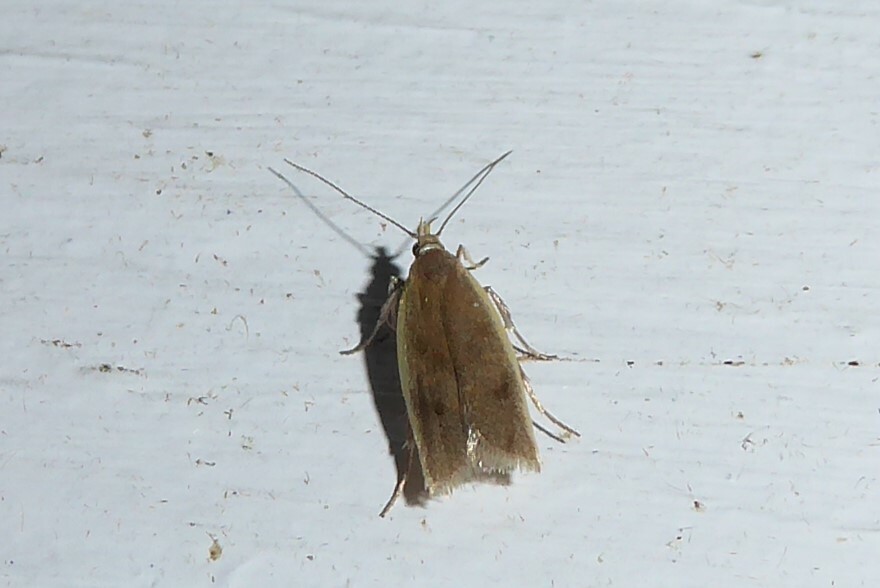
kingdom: Animalia
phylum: Arthropoda
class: Insecta
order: Lepidoptera
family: Oecophoridae
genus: Gymnobathra
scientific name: Gymnobathra parca
